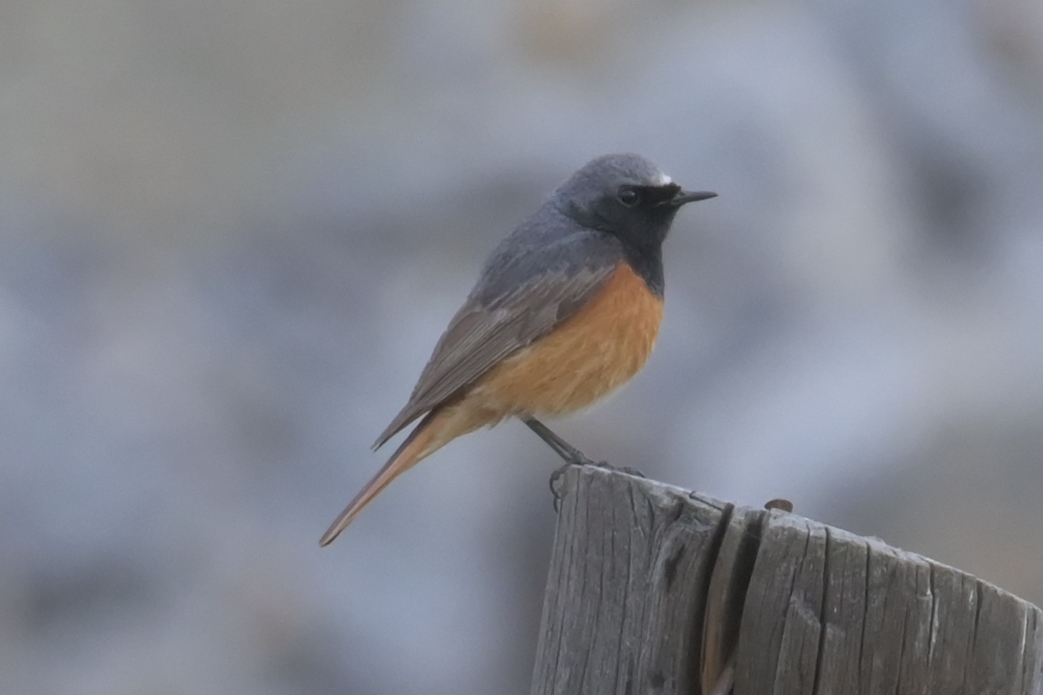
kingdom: Animalia
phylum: Chordata
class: Aves
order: Passeriformes
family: Muscicapidae
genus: Phoenicurus
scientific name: Phoenicurus ochruros
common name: Black redstart
